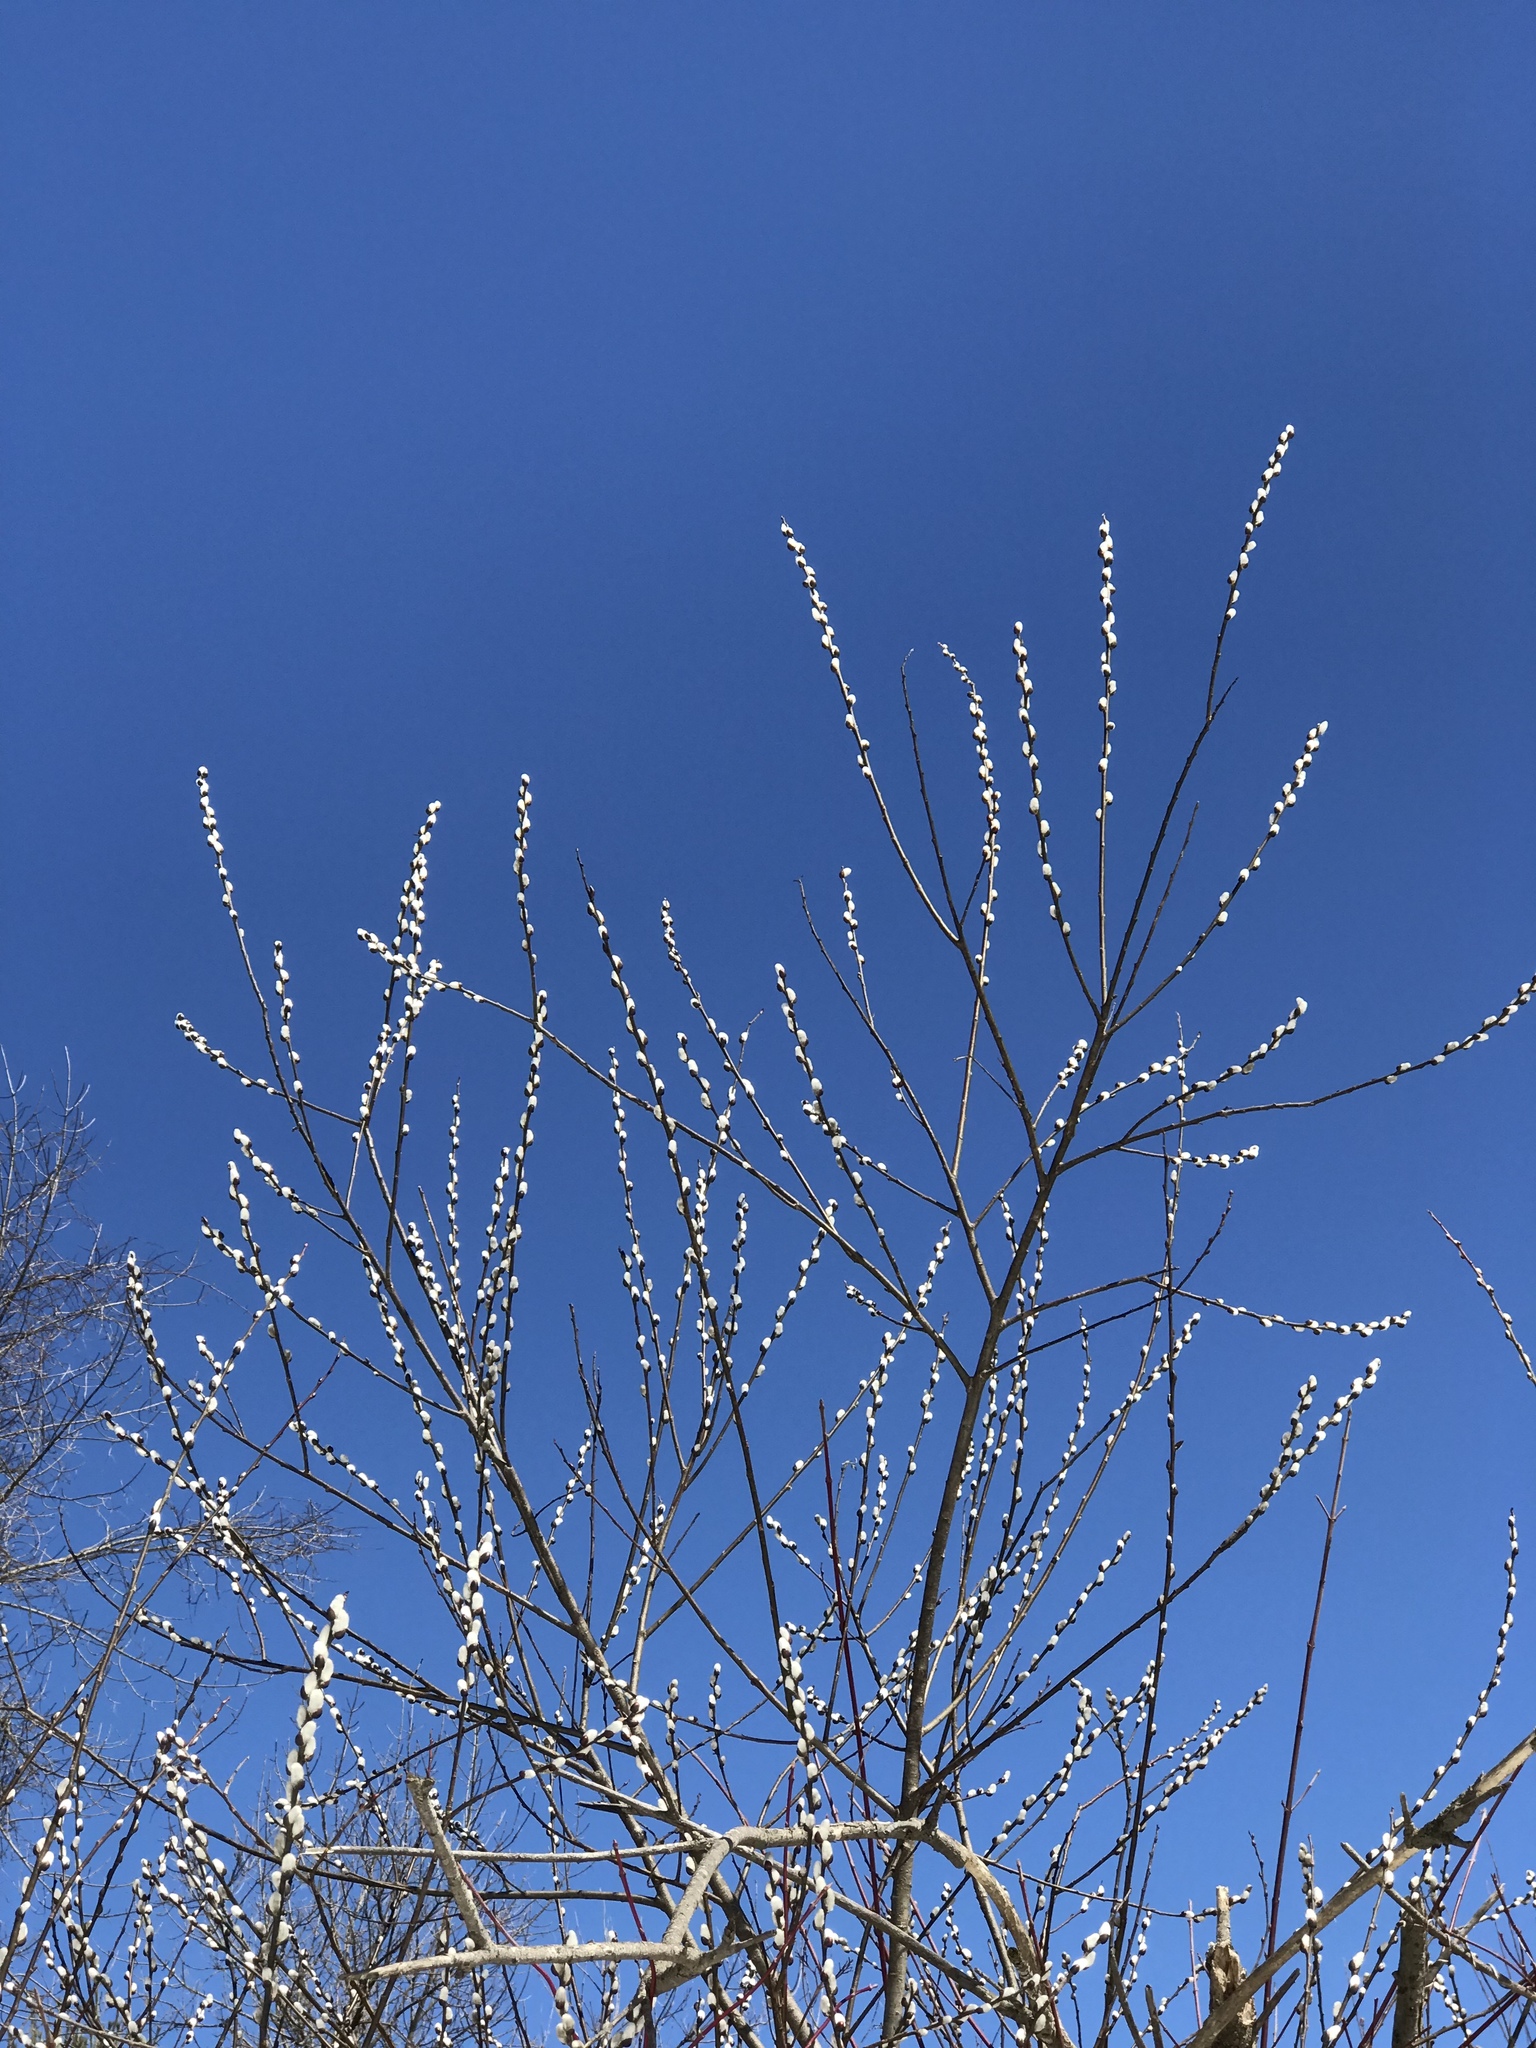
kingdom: Plantae
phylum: Tracheophyta
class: Magnoliopsida
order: Malpighiales
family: Salicaceae
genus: Salix
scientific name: Salix discolor
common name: Glaucous willow
